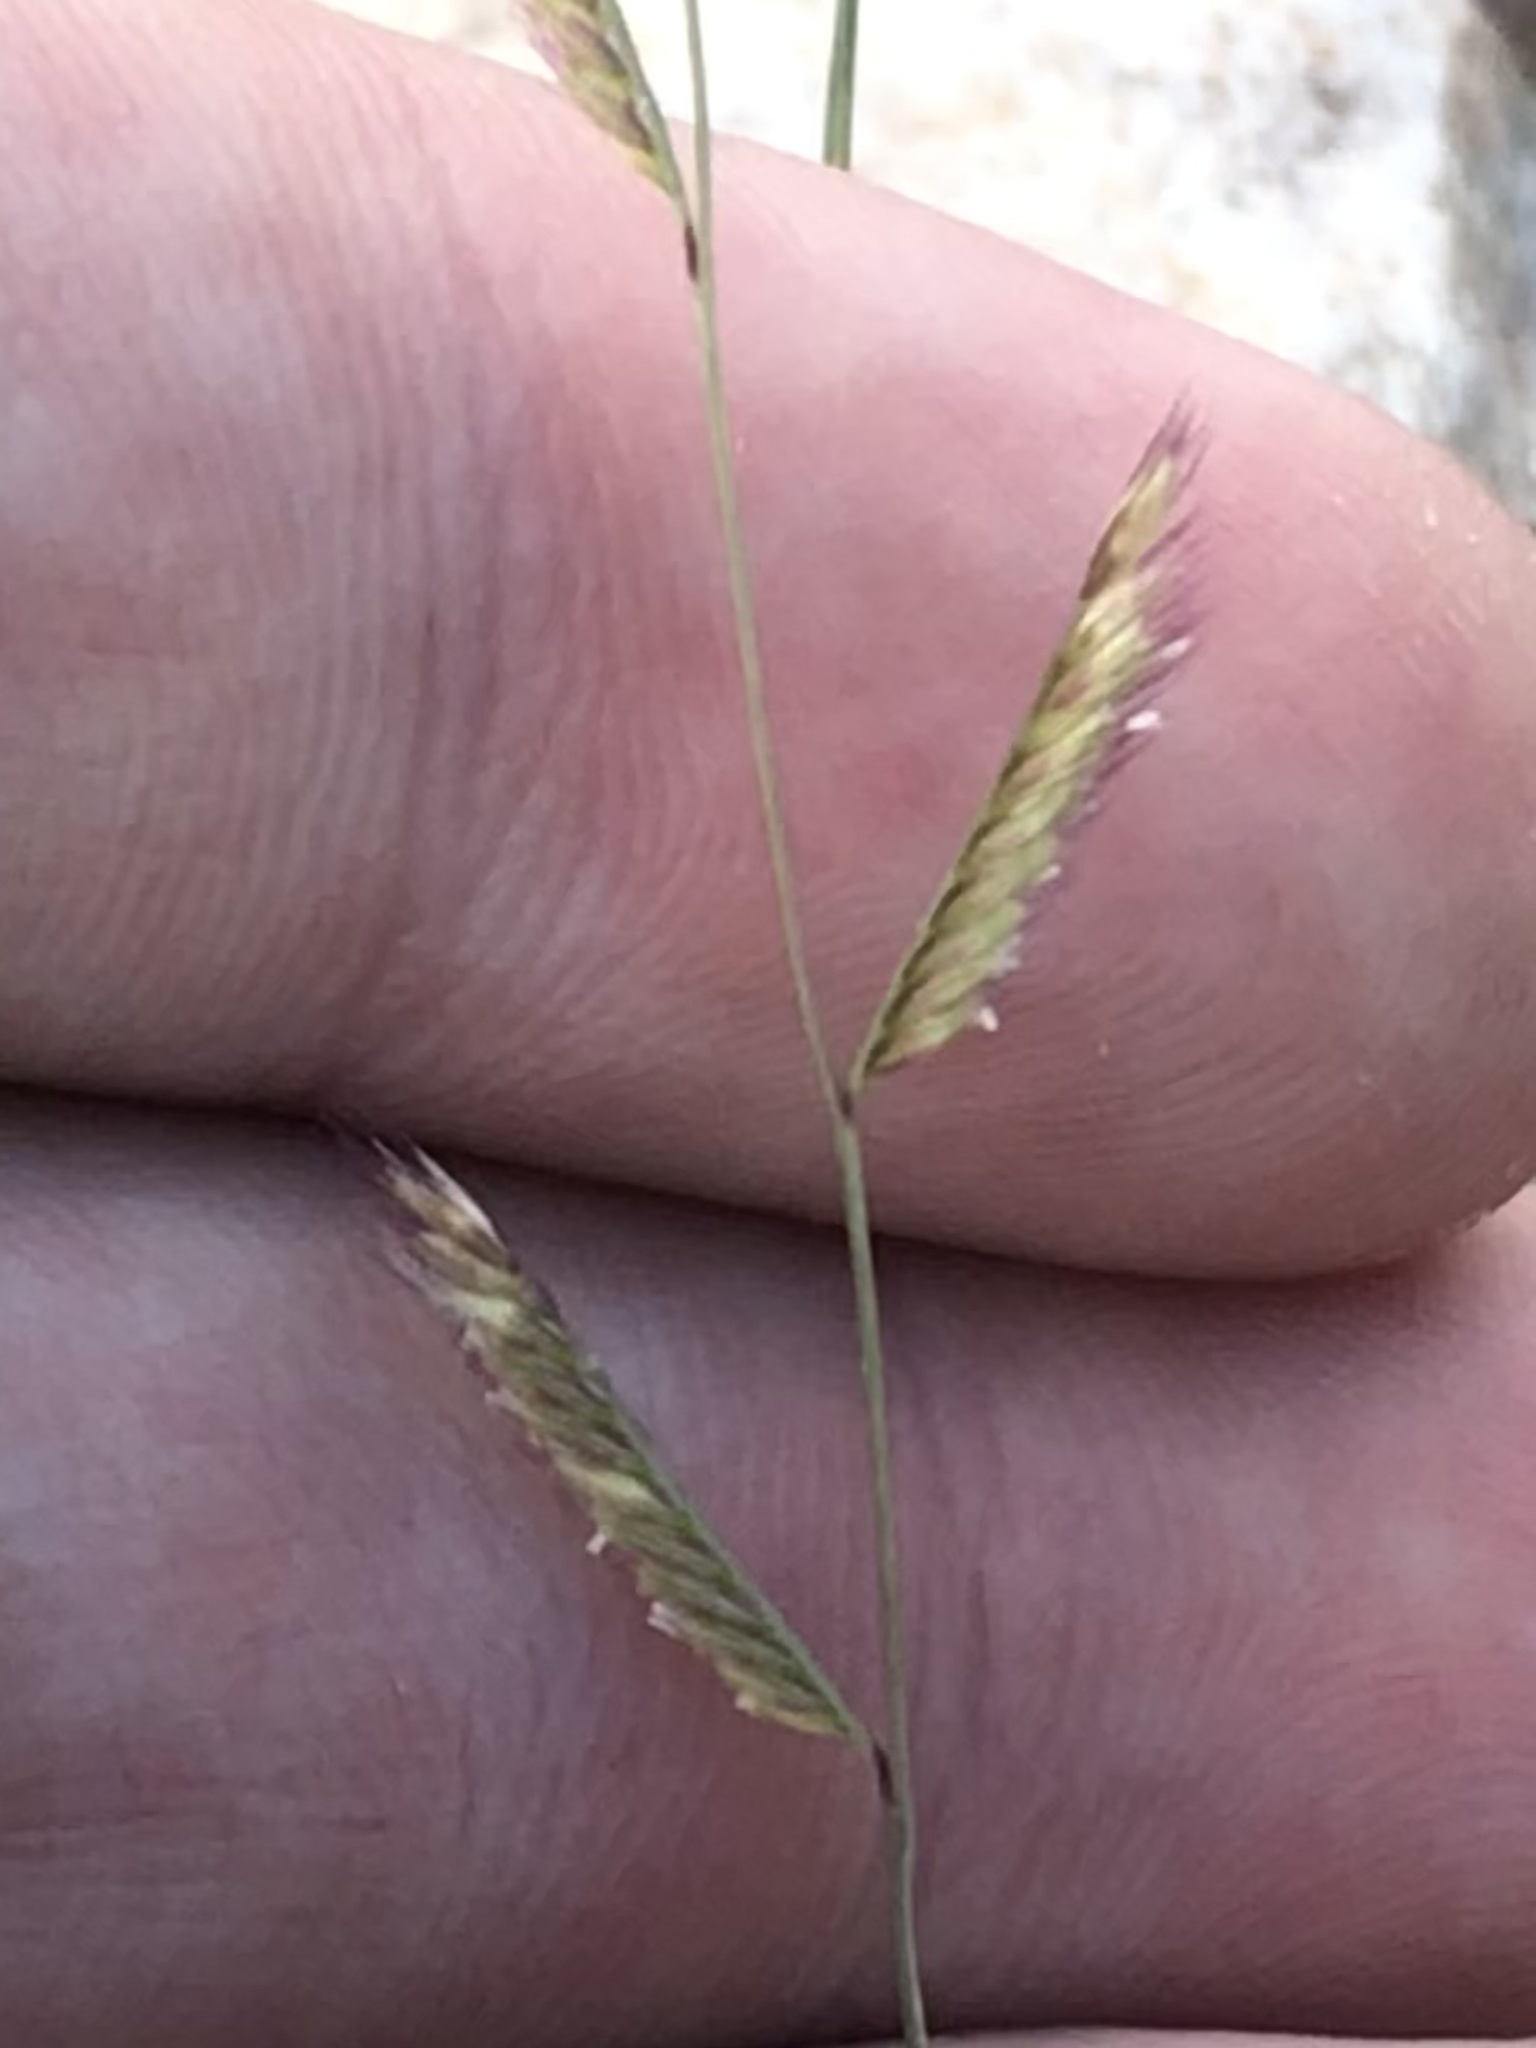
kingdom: Plantae
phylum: Tracheophyta
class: Liliopsida
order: Poales
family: Poaceae
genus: Bouteloua
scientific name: Bouteloua gracilis
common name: Blue grama
